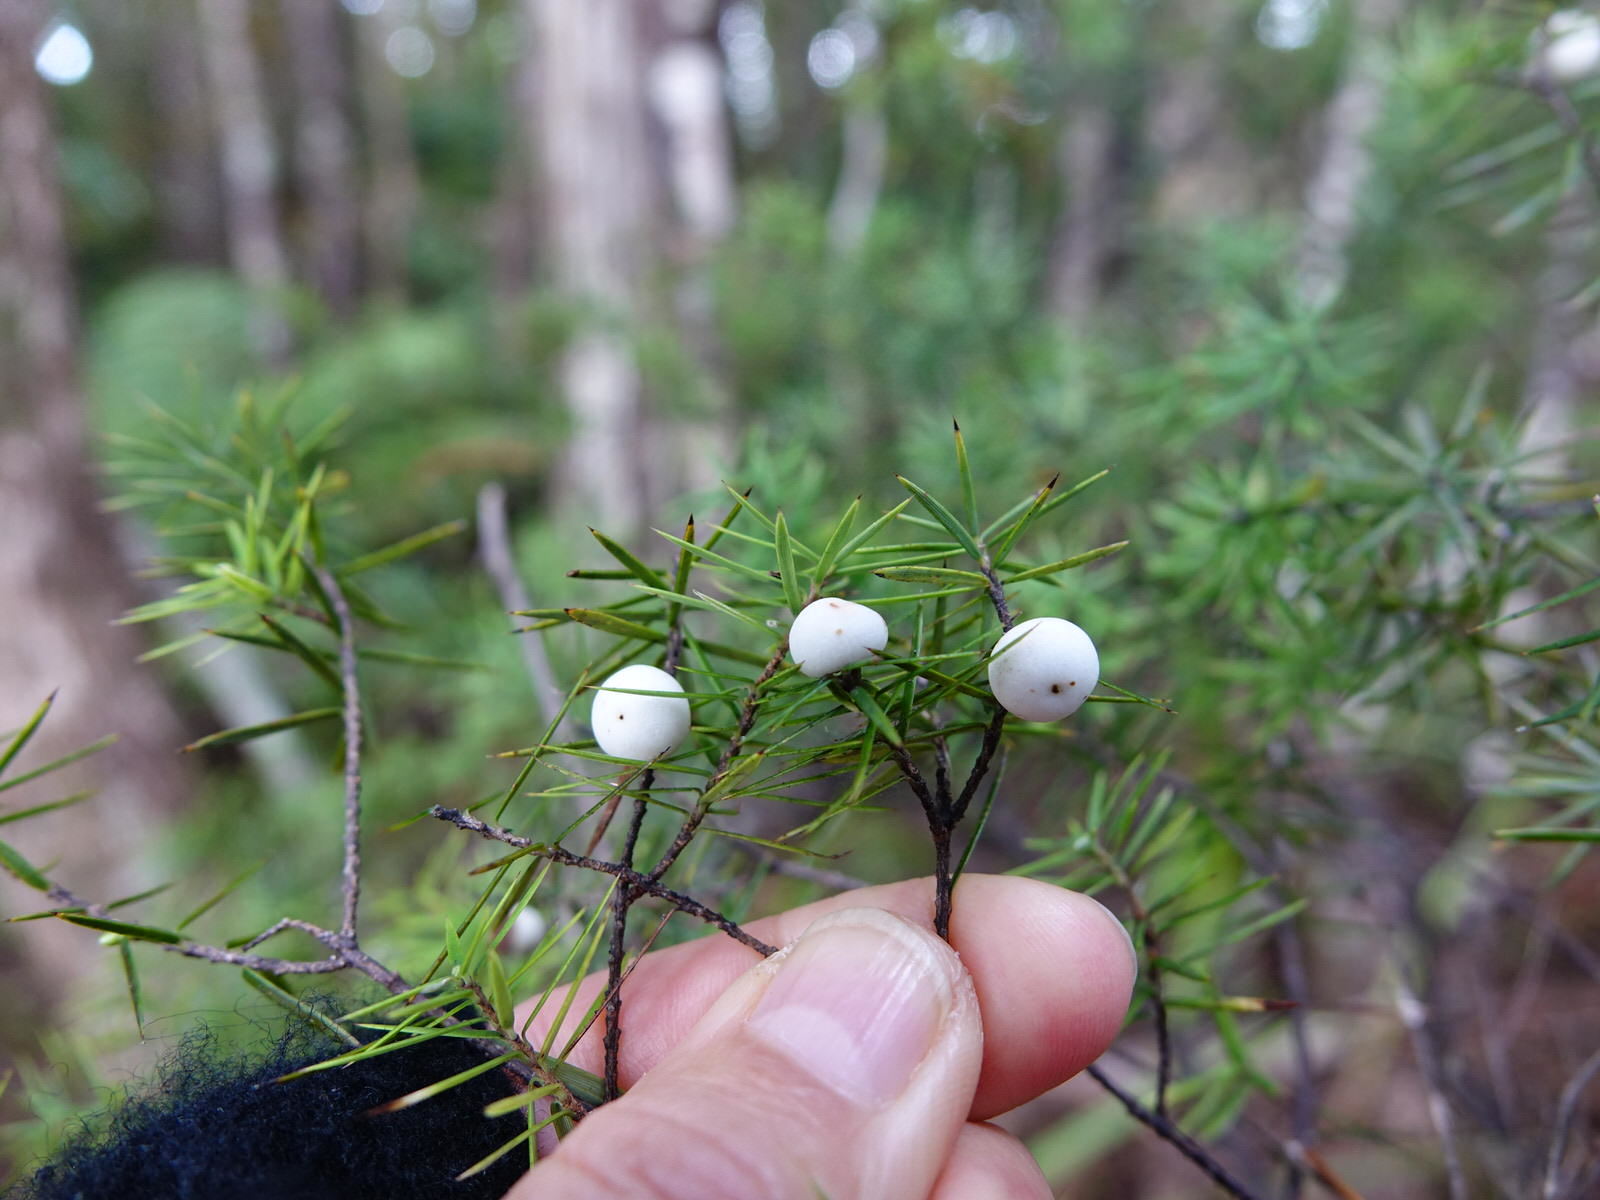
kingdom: Plantae
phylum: Tracheophyta
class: Magnoliopsida
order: Ericales
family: Ericaceae
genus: Leptecophylla
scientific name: Leptecophylla juniperina
